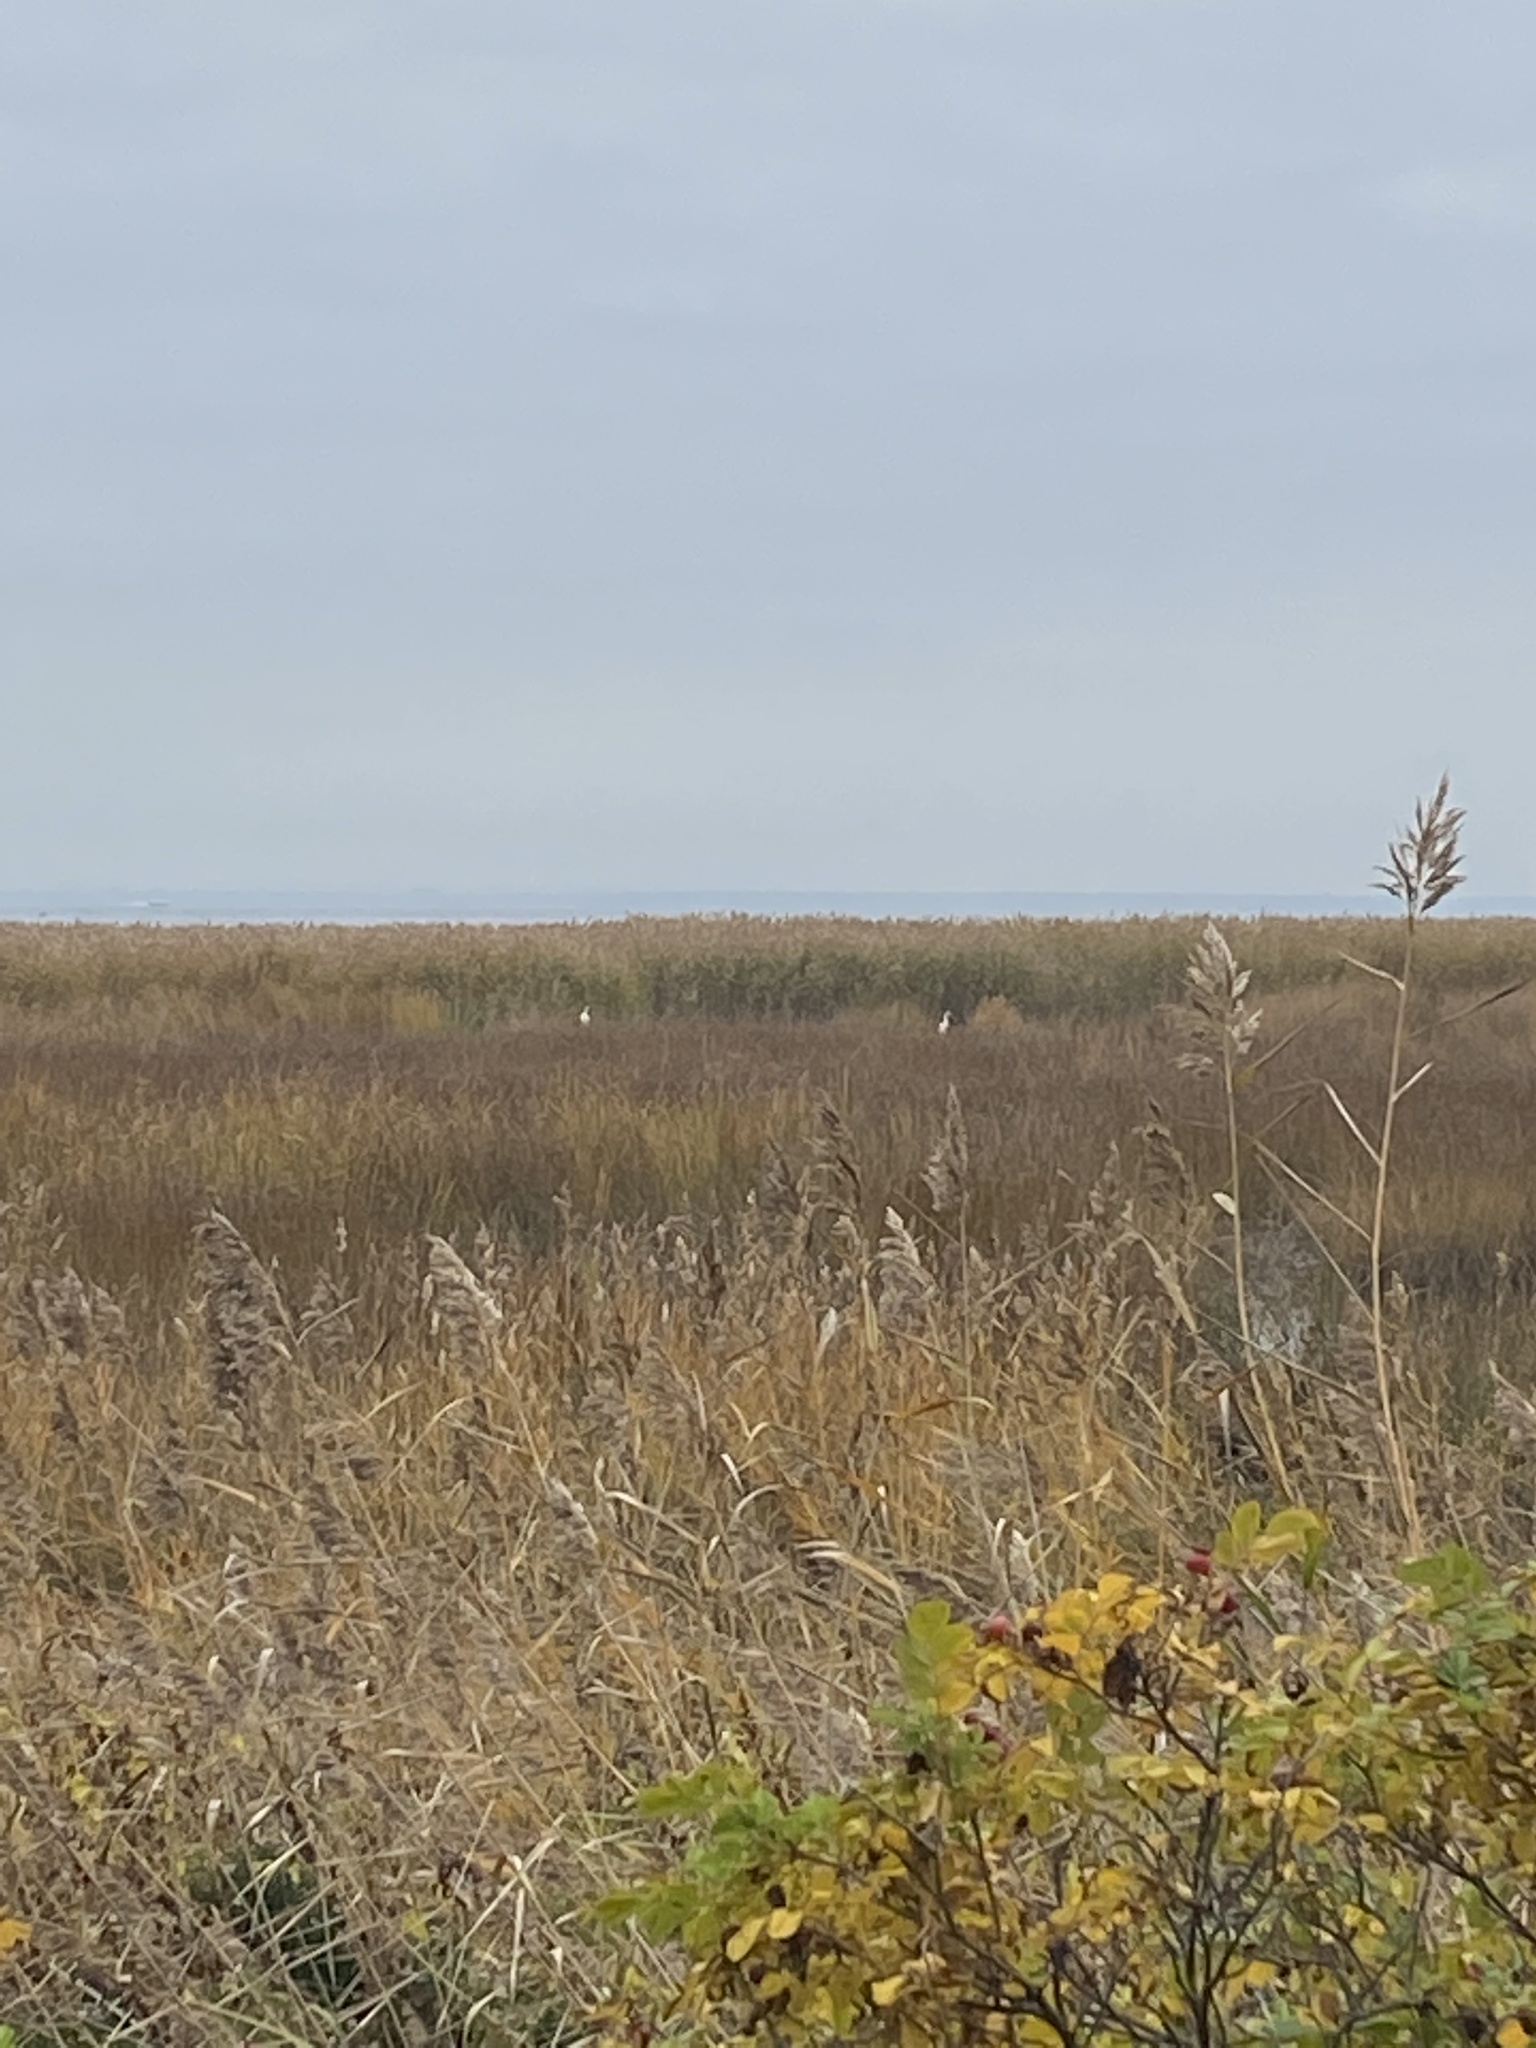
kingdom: Animalia
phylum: Chordata
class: Aves
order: Pelecaniformes
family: Ardeidae
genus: Ardea
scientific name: Ardea alba
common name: Great egret
